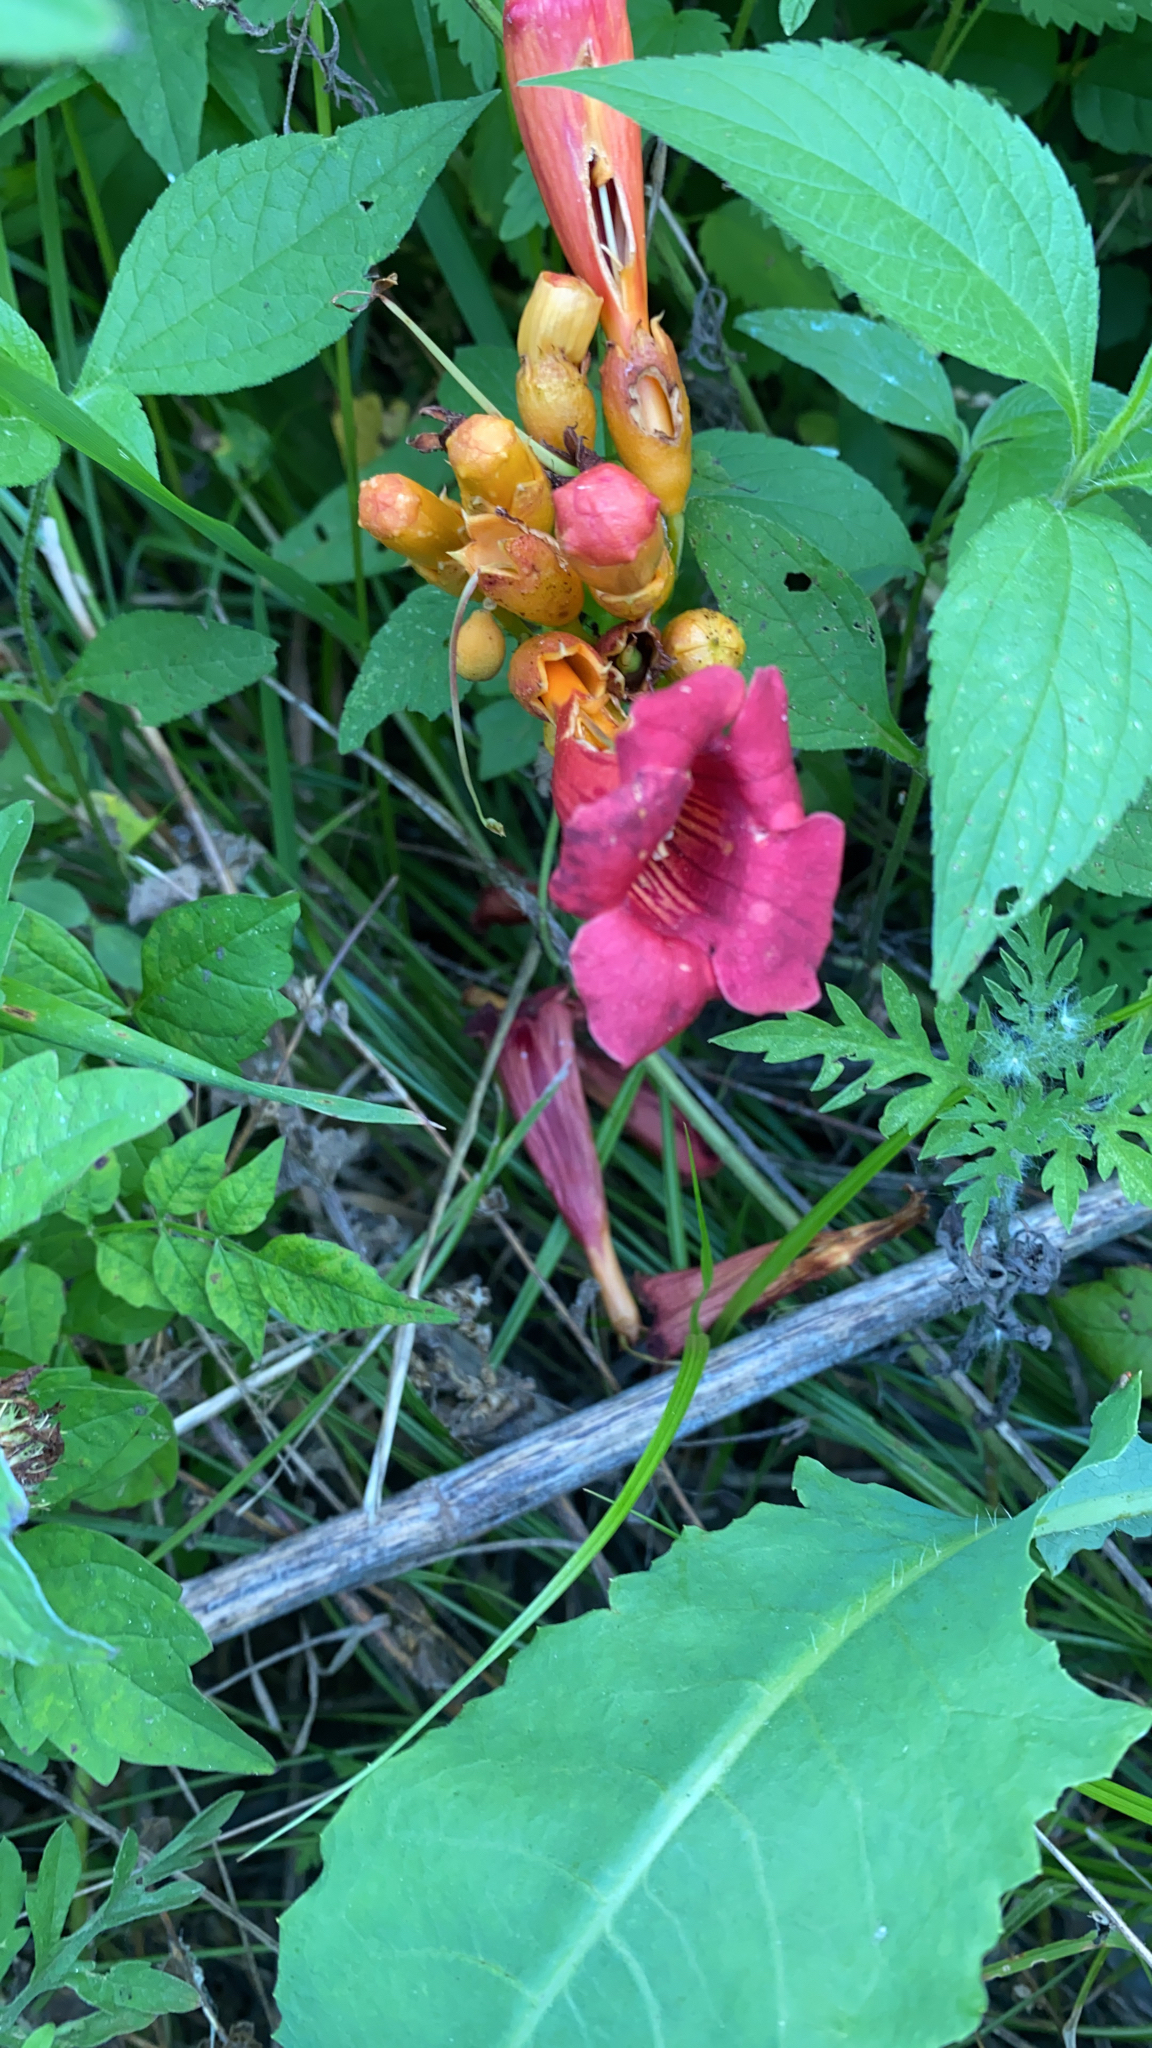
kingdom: Plantae
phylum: Tracheophyta
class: Magnoliopsida
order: Lamiales
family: Bignoniaceae
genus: Campsis
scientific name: Campsis radicans
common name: Trumpet-creeper
